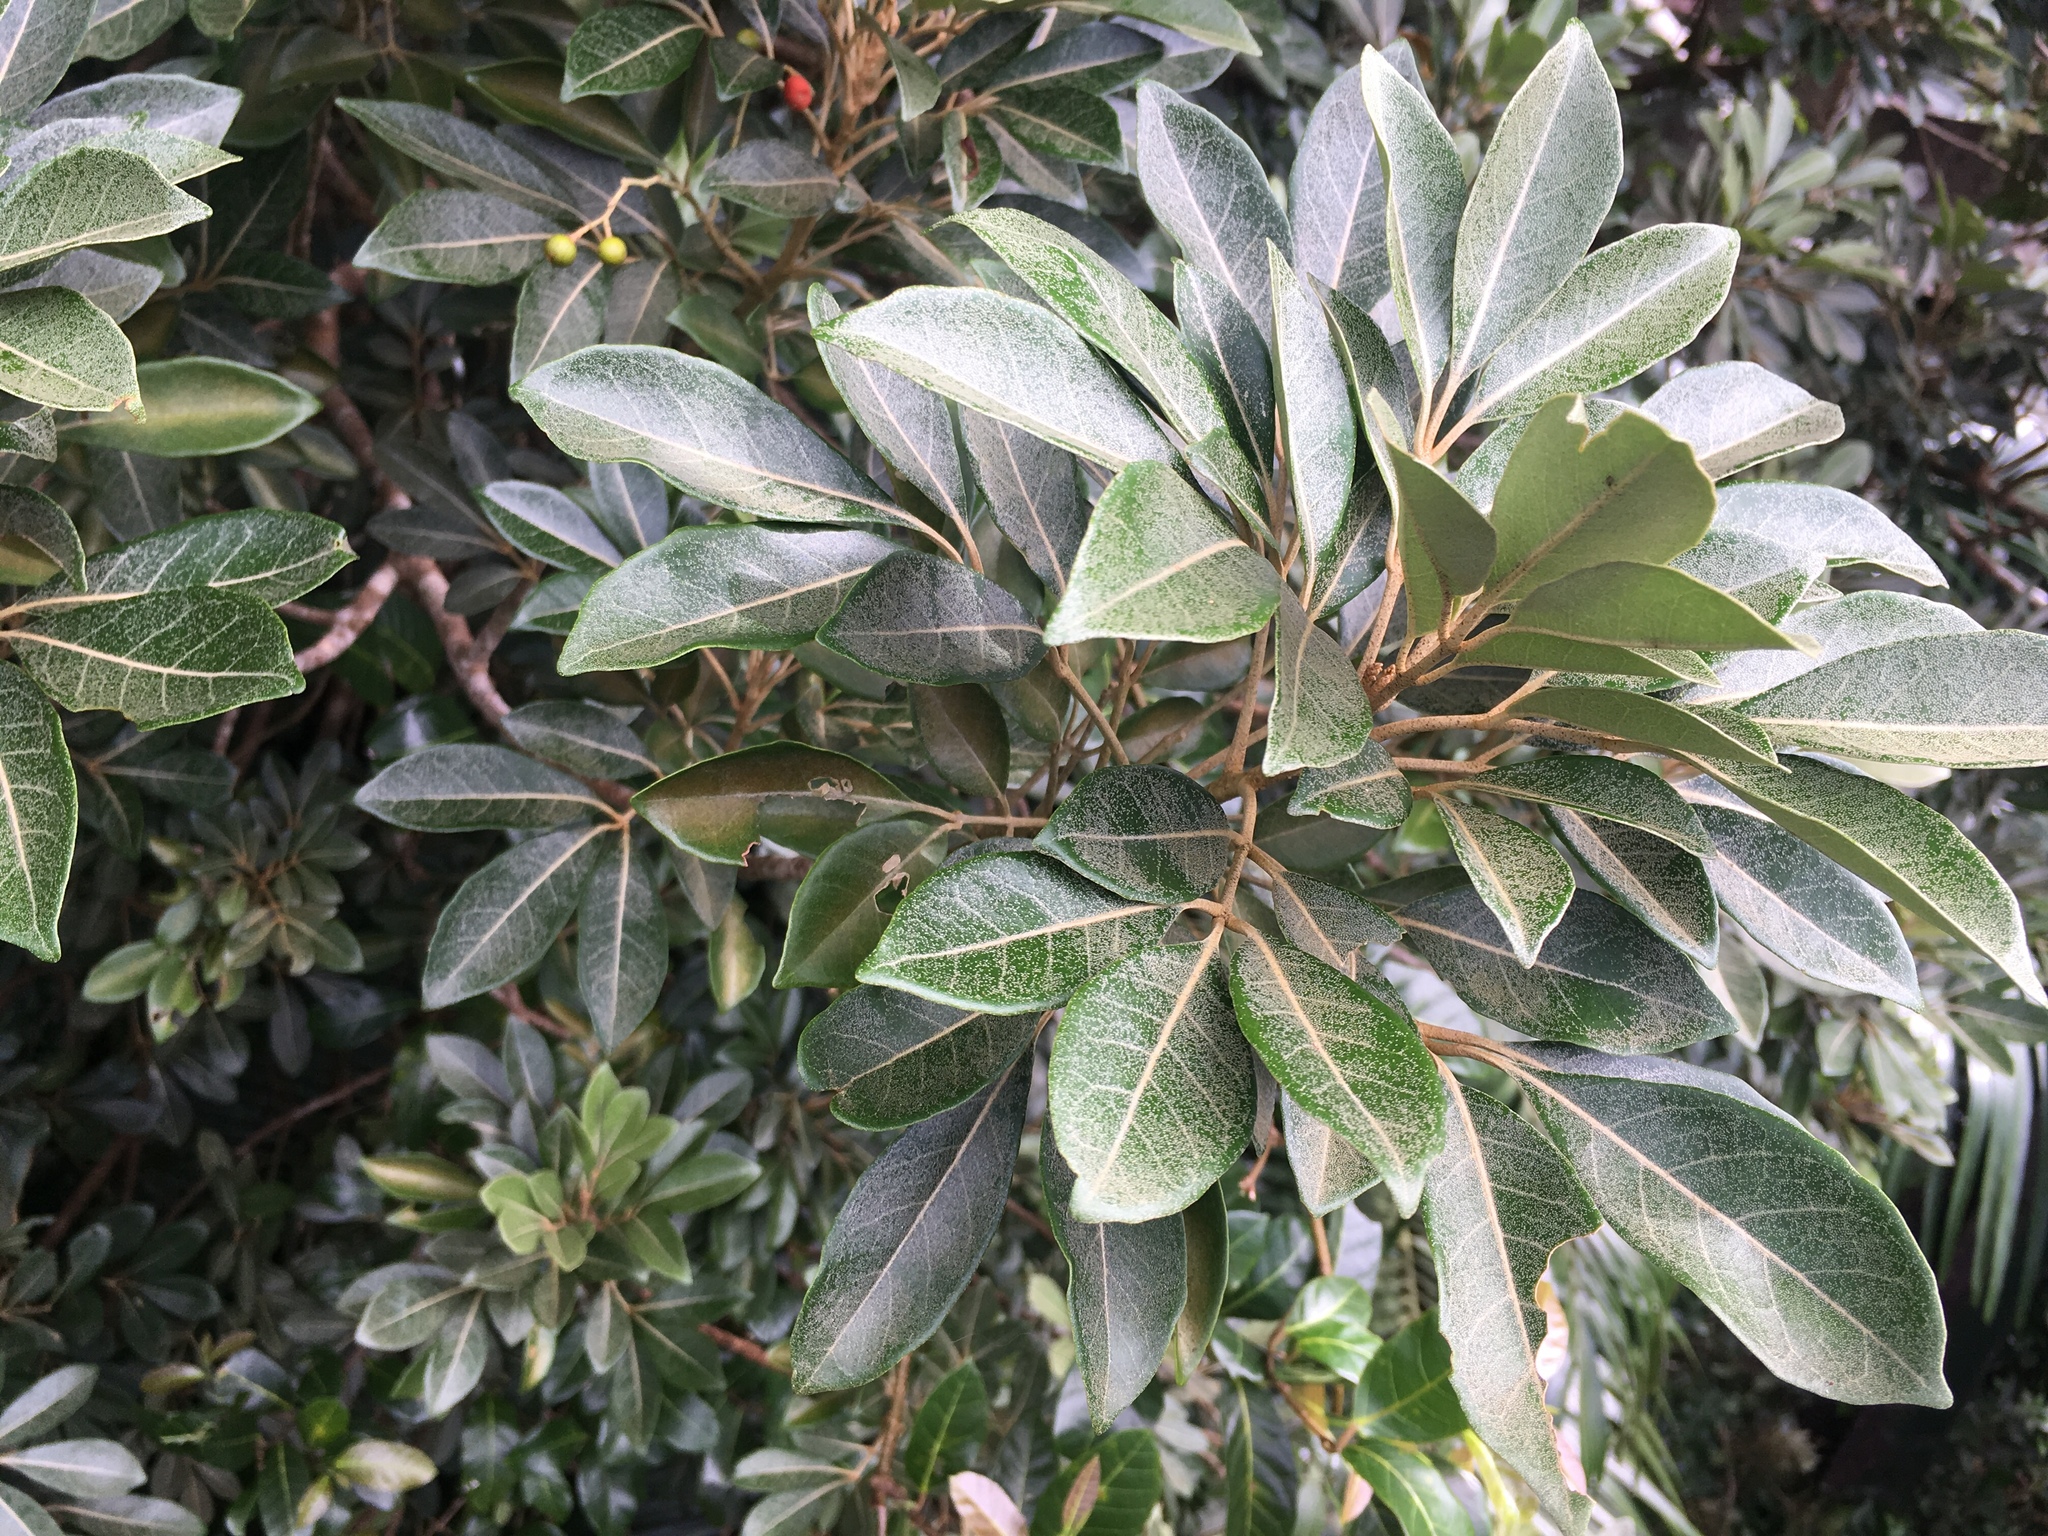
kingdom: Plantae
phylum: Tracheophyta
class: Magnoliopsida
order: Sapindales
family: Meliaceae
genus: Aglaia
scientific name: Aglaia elaeagnoidea
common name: Droopyleaf
